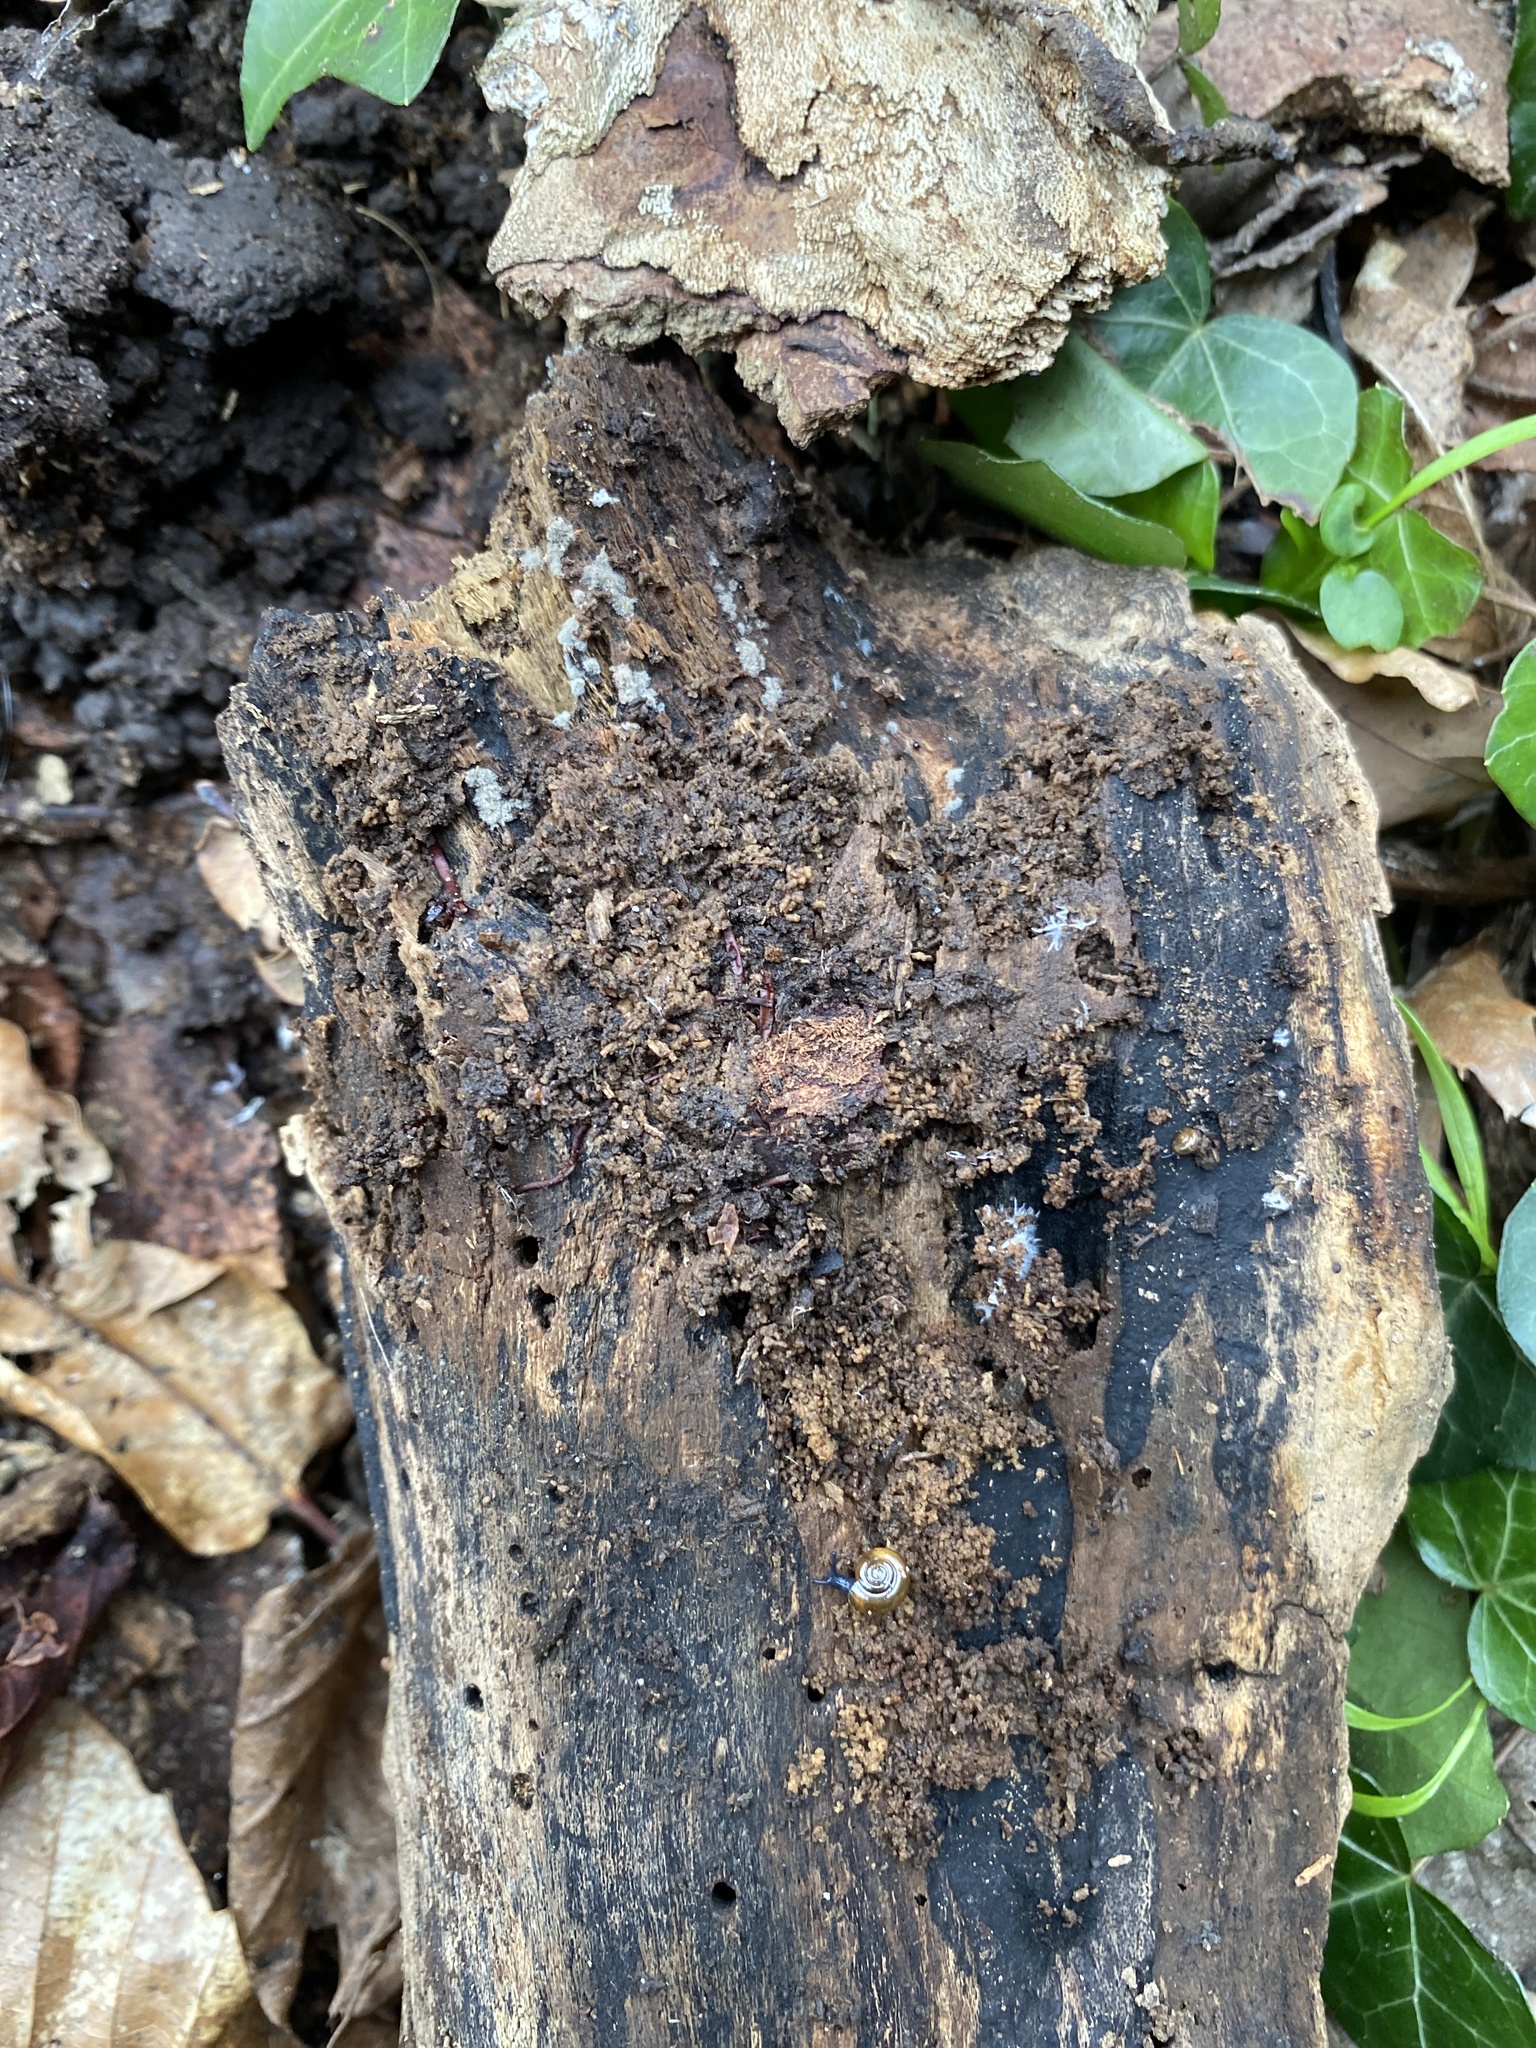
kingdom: Protozoa
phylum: Mycetozoa
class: Protosteliomycetes
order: Ceratiomyxales
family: Ceratiomyxaceae
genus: Ceratiomyxa
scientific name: Ceratiomyxa fruticulosa
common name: Honeycomb coral slime mold
